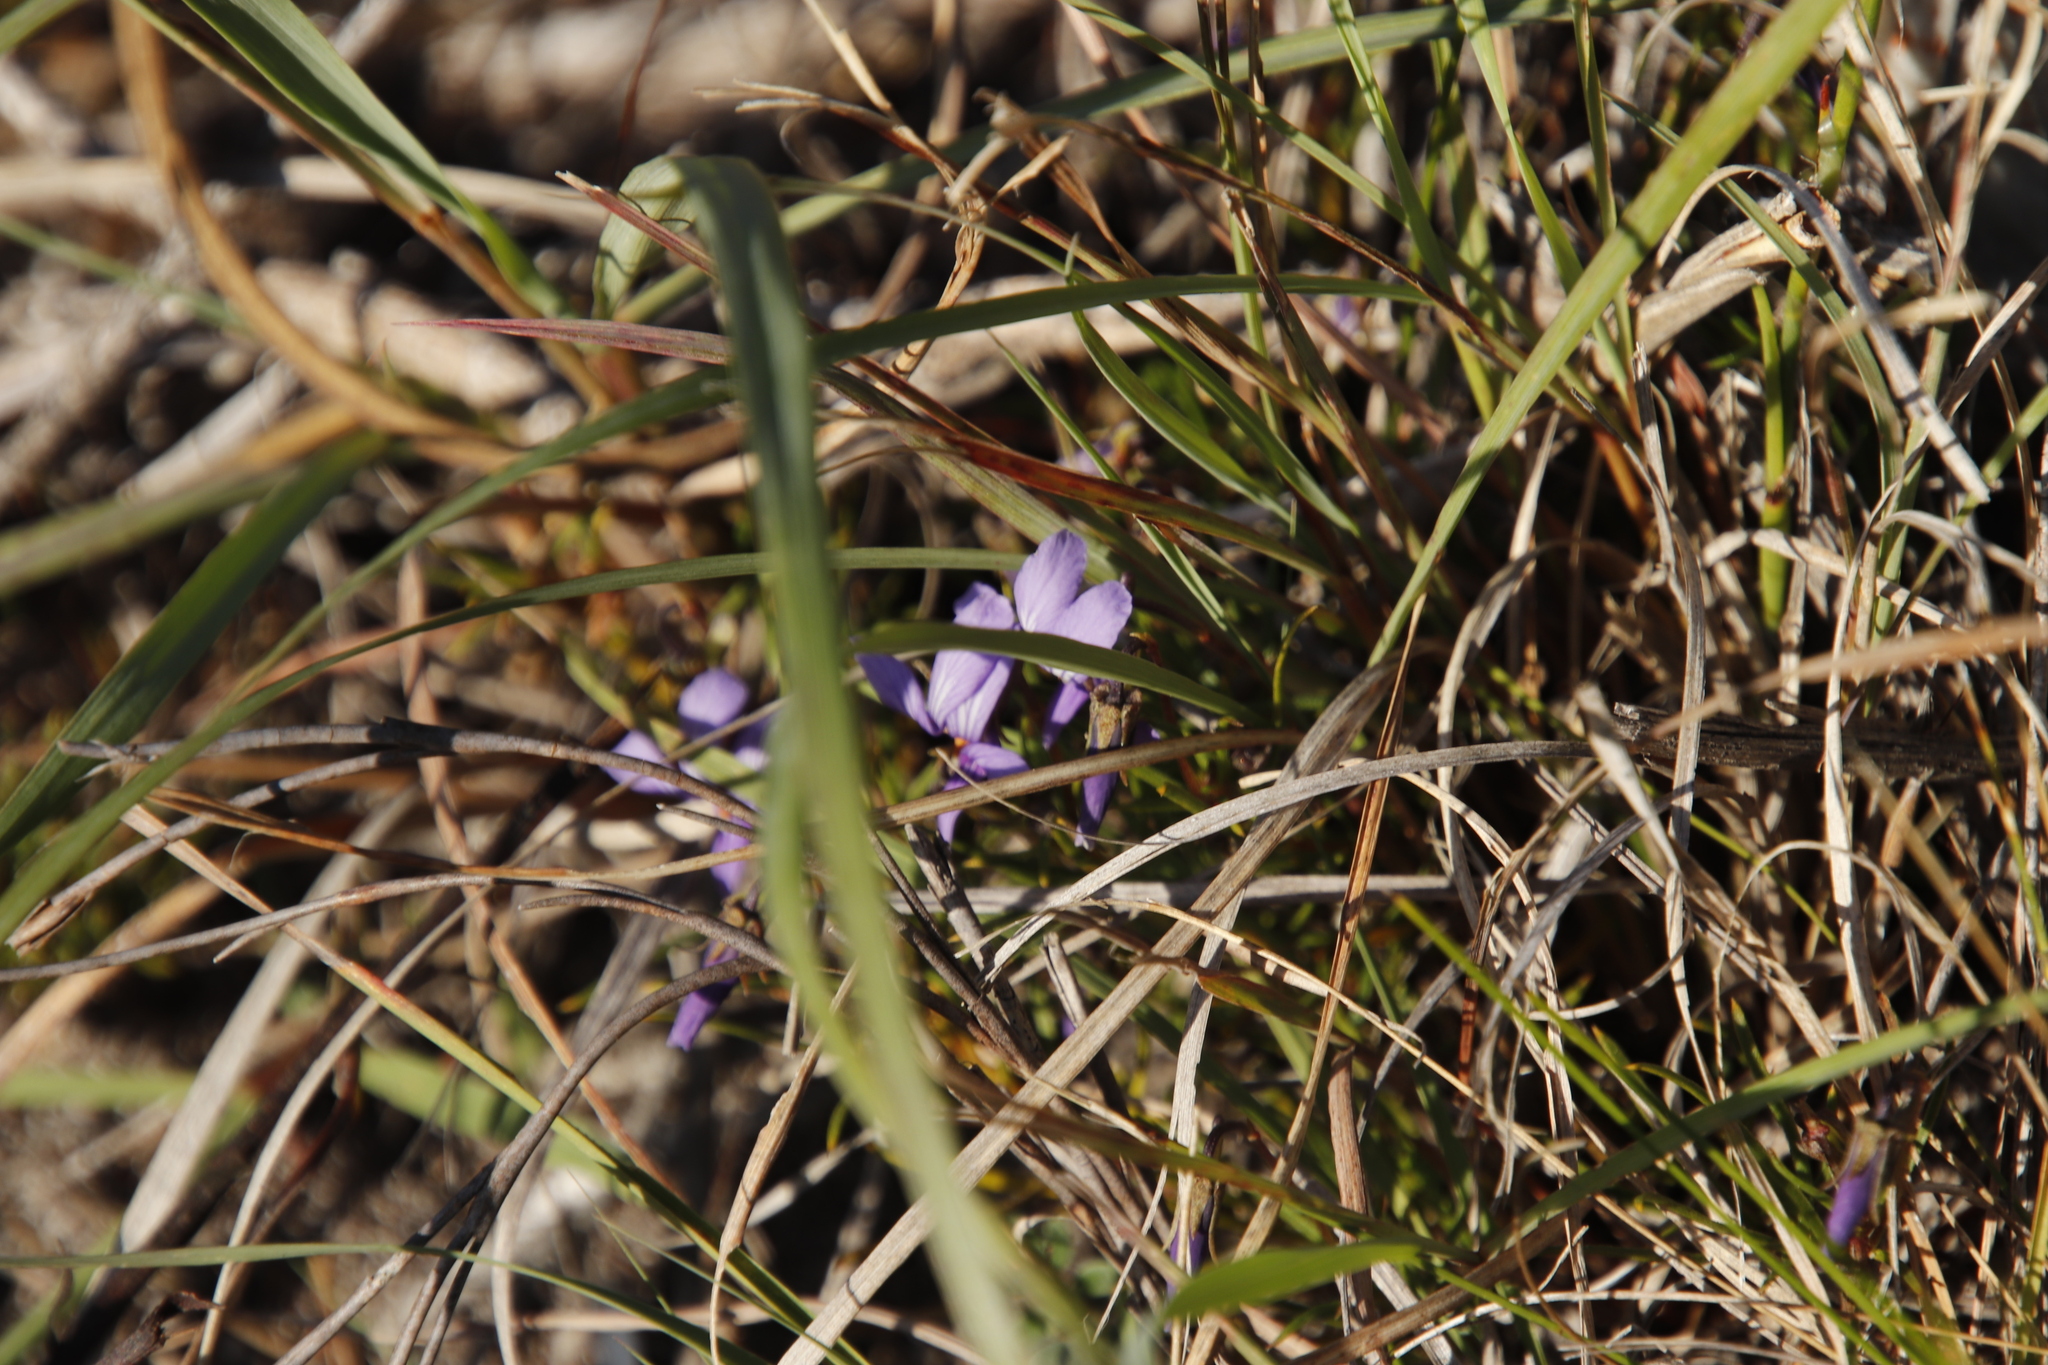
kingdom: Plantae
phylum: Tracheophyta
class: Magnoliopsida
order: Malpighiales
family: Violaceae
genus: Viola
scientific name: Viola decumbens
